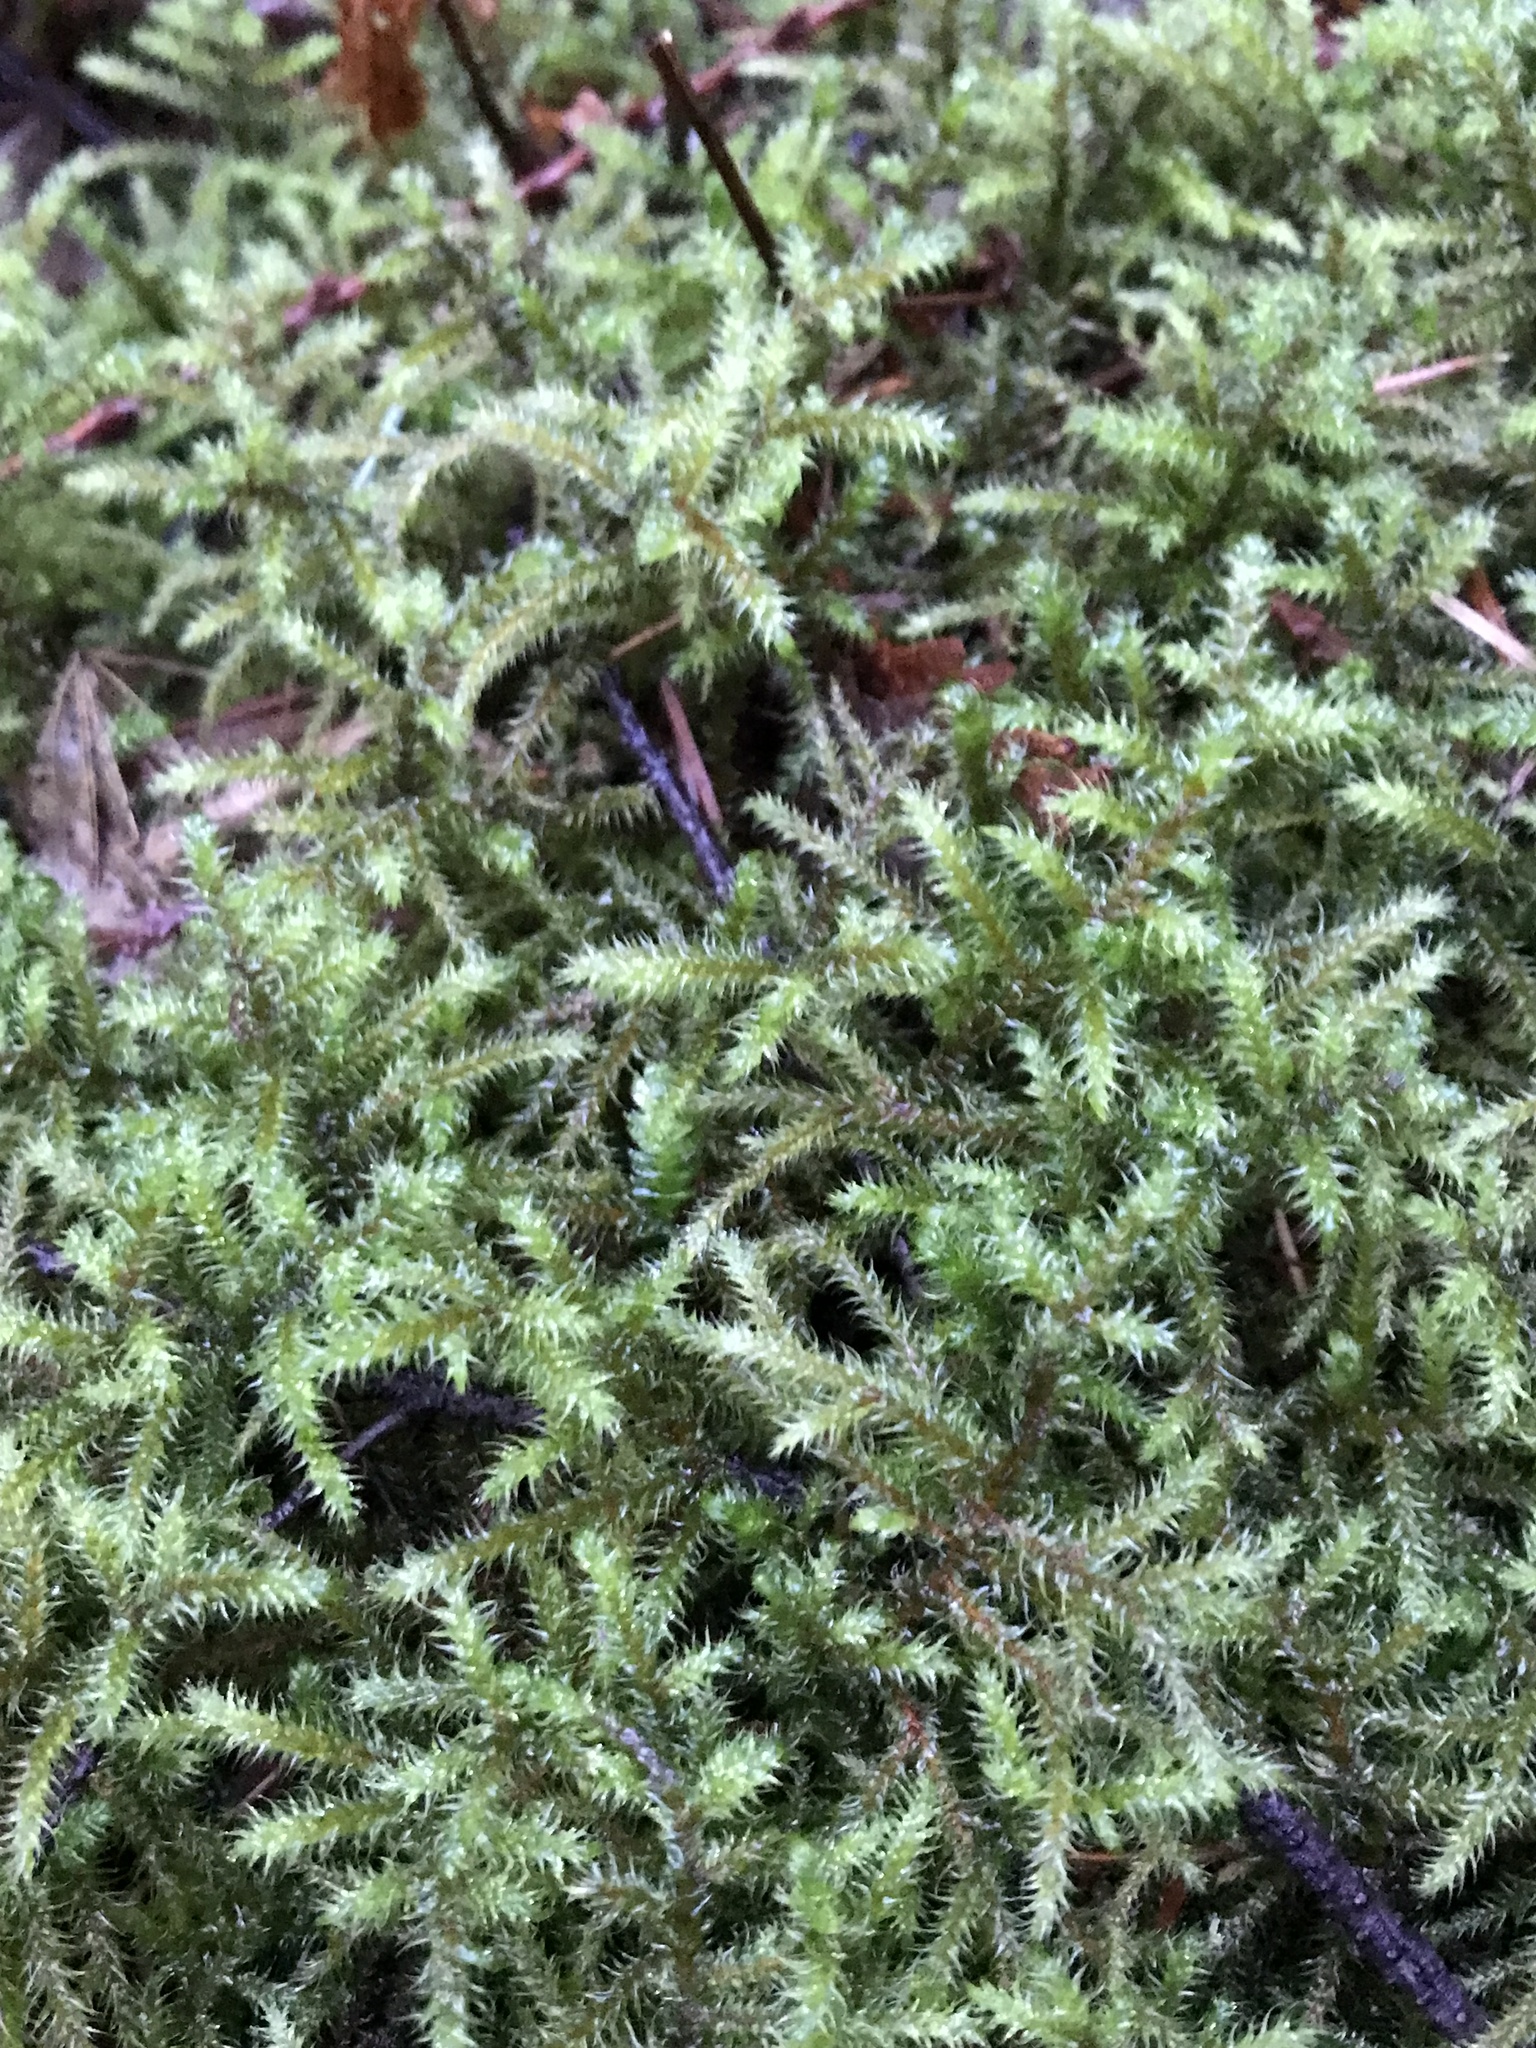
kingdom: Plantae
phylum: Bryophyta
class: Bryopsida
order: Hypnales
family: Hylocomiaceae
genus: Rhytidiadelphus
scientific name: Rhytidiadelphus loreus
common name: Lanky moss
